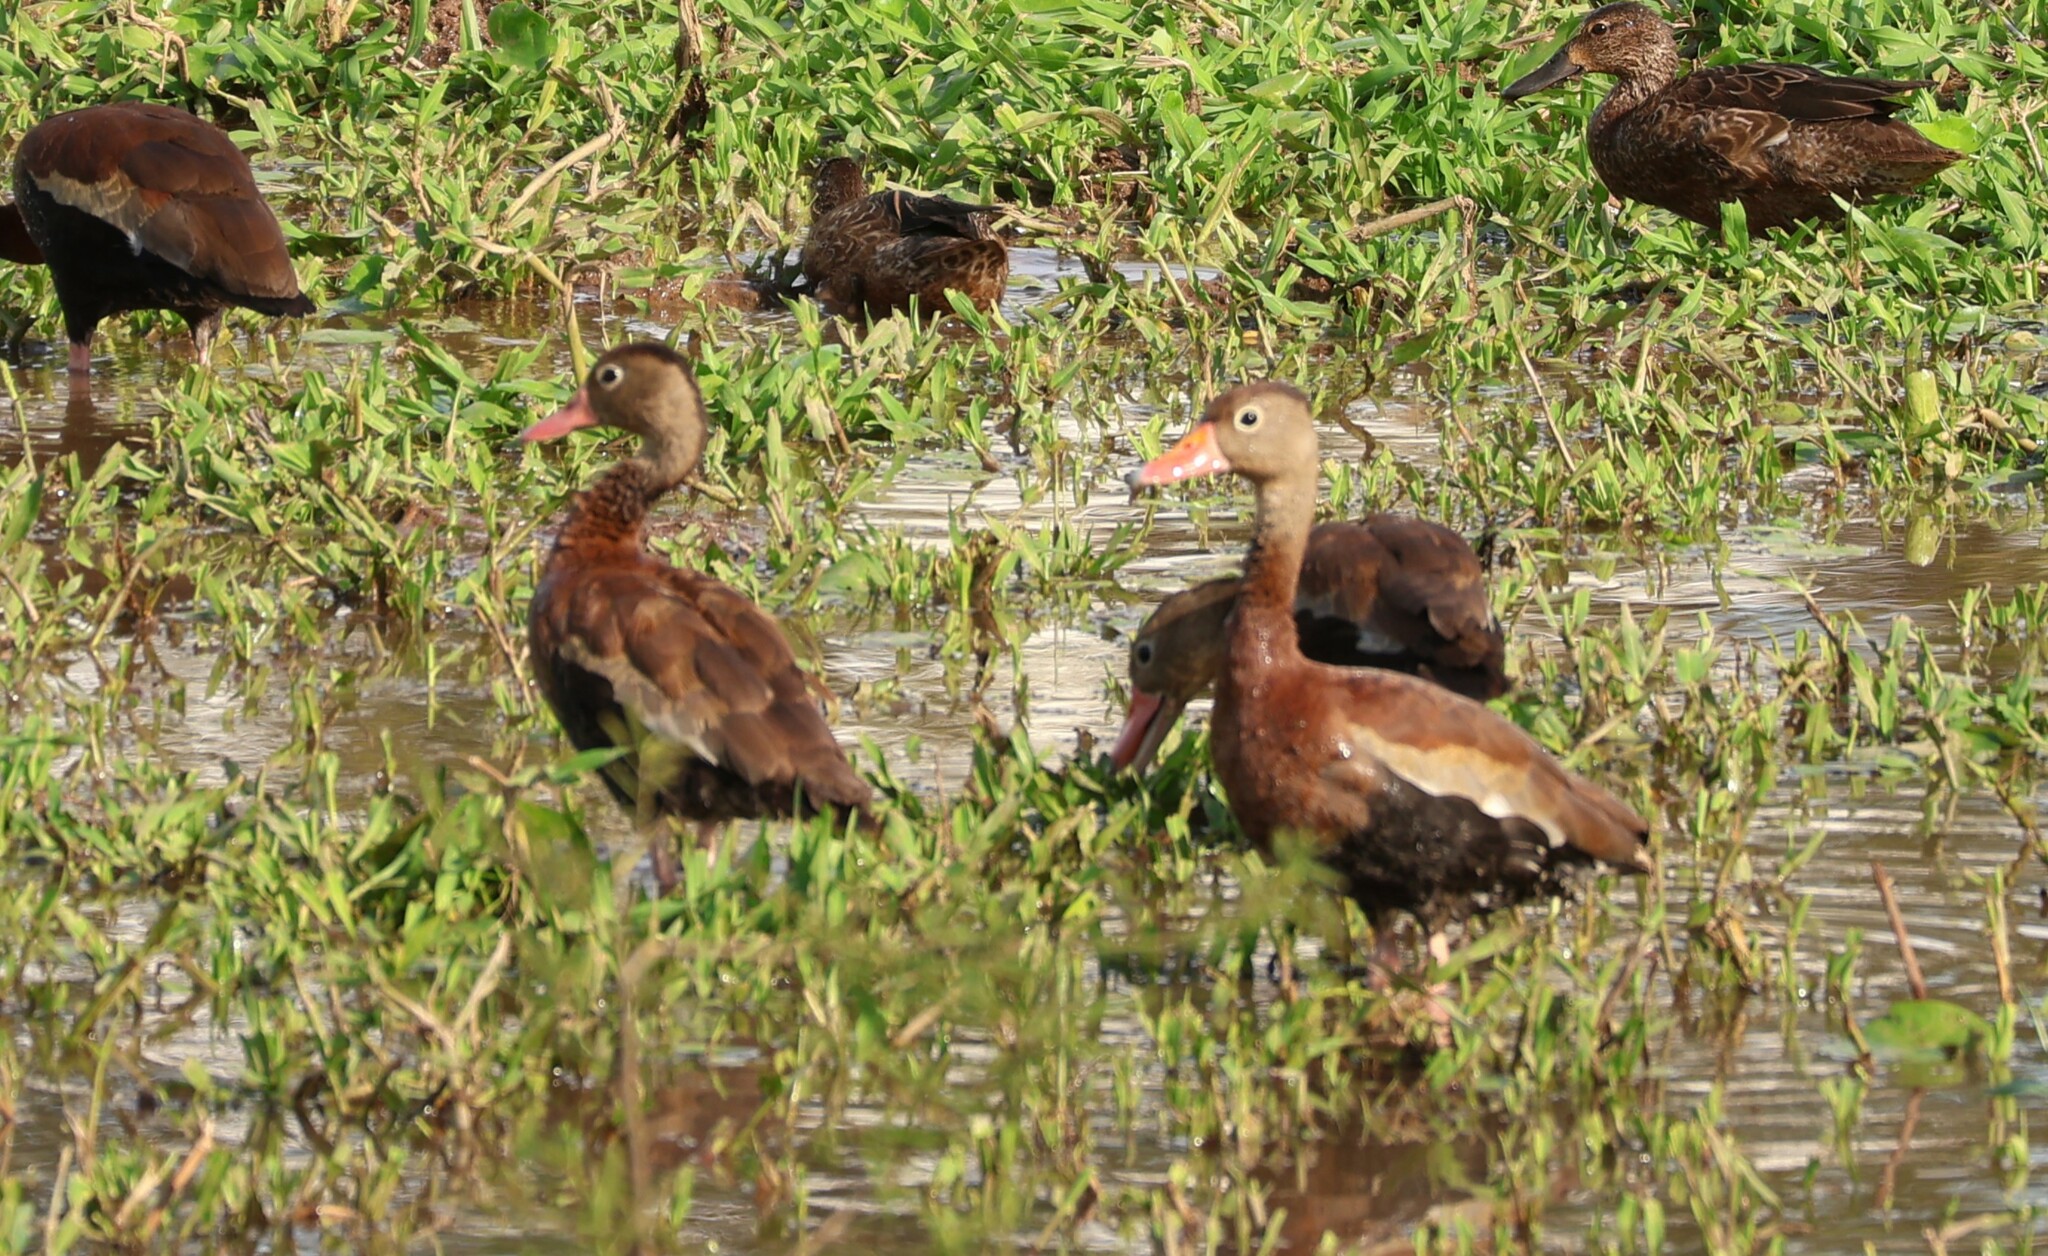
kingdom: Animalia
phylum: Chordata
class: Aves
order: Anseriformes
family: Anatidae
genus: Dendrocygna
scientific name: Dendrocygna autumnalis
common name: Black-bellied whistling duck
